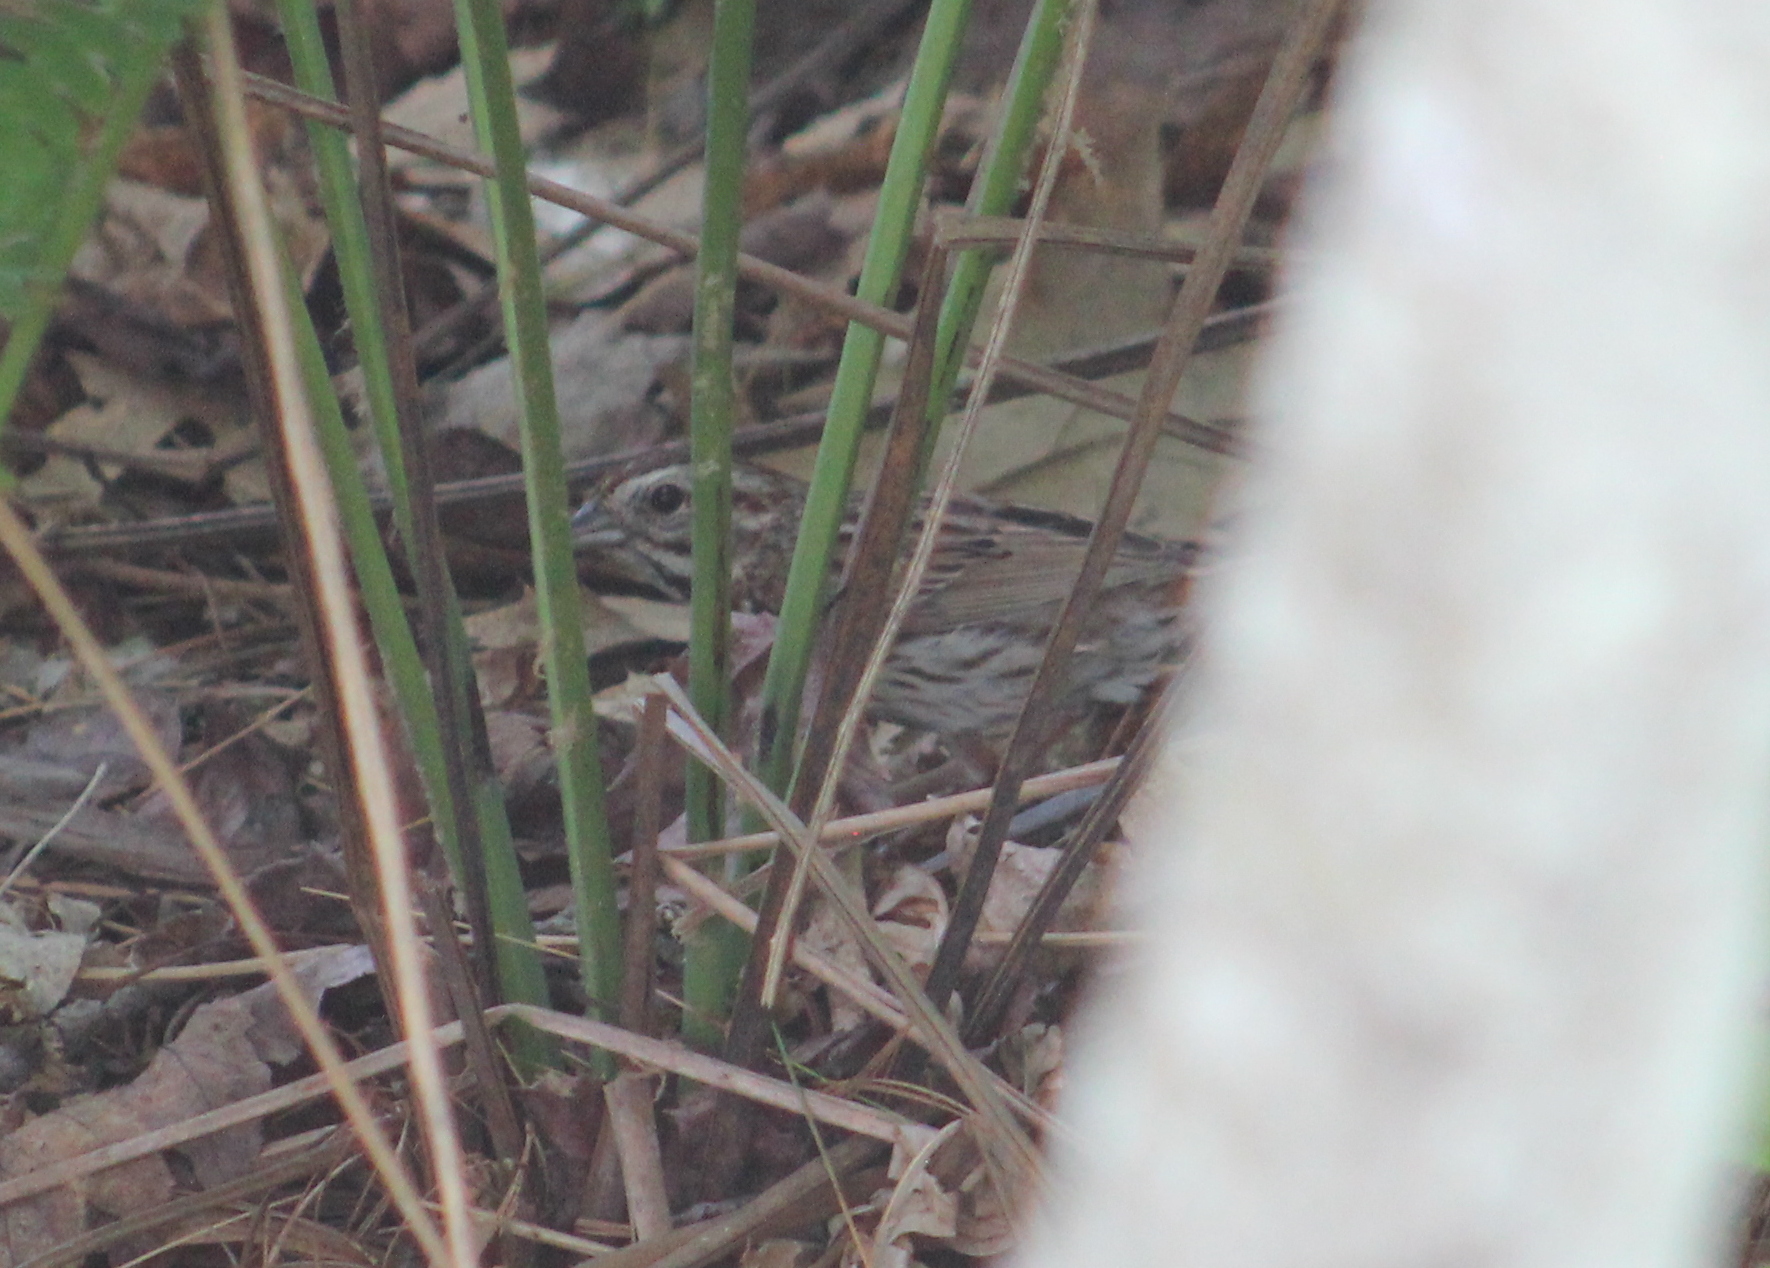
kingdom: Animalia
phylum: Chordata
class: Aves
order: Passeriformes
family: Passerellidae
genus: Melospiza
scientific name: Melospiza melodia
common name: Song sparrow
